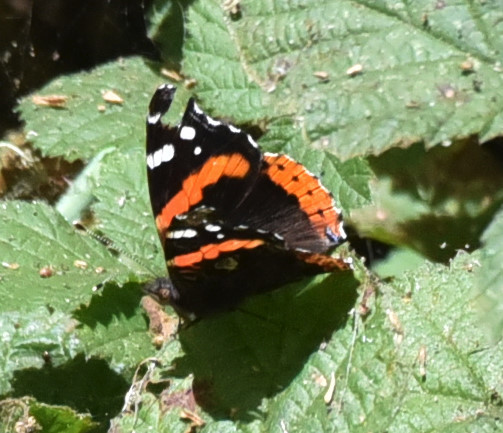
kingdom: Animalia
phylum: Arthropoda
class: Insecta
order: Lepidoptera
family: Nymphalidae
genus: Vanessa
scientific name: Vanessa atalanta
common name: Red admiral
